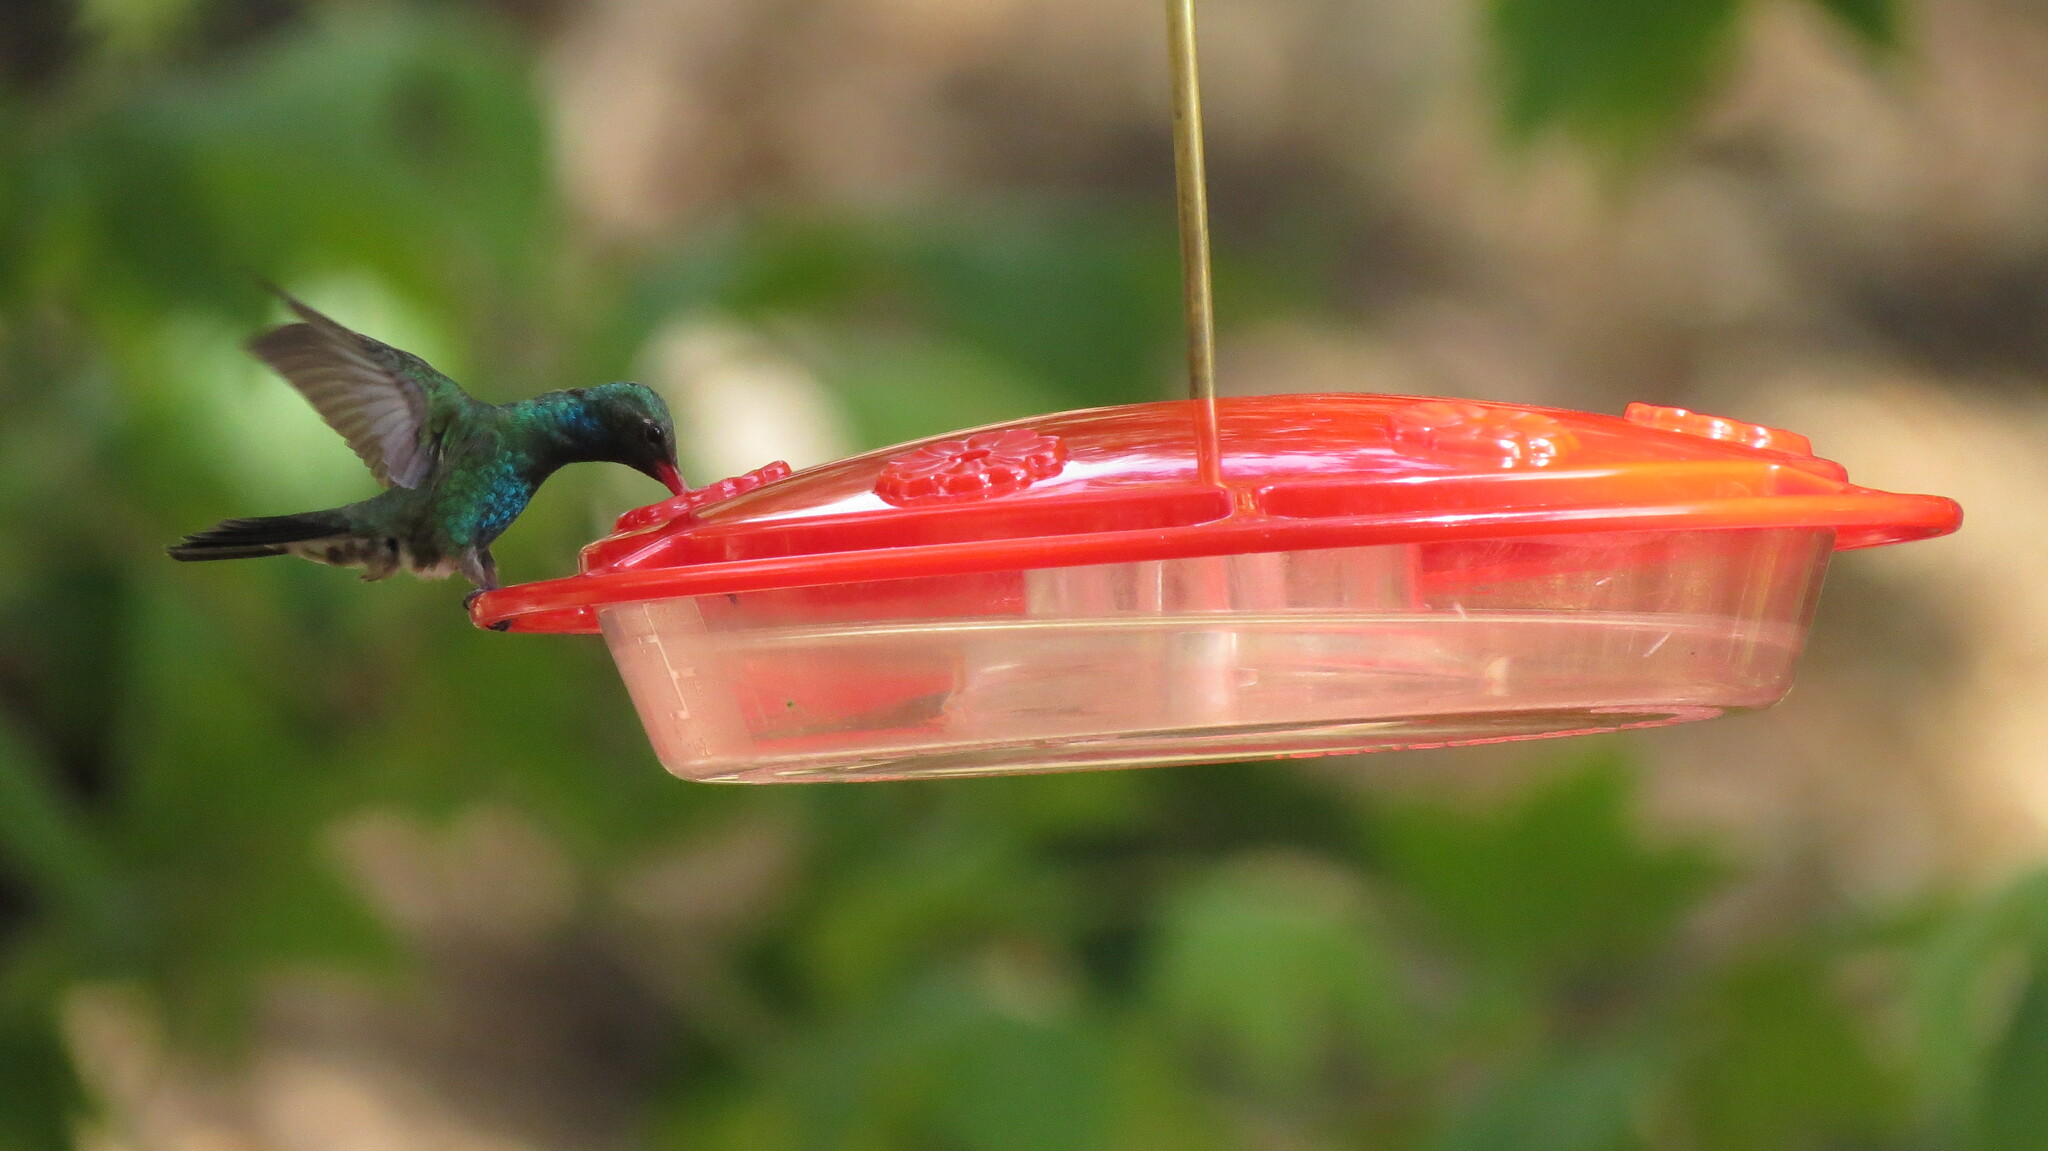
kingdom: Animalia
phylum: Chordata
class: Aves
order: Apodiformes
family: Trochilidae
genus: Cynanthus
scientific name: Cynanthus latirostris
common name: Broad-billed hummingbird
